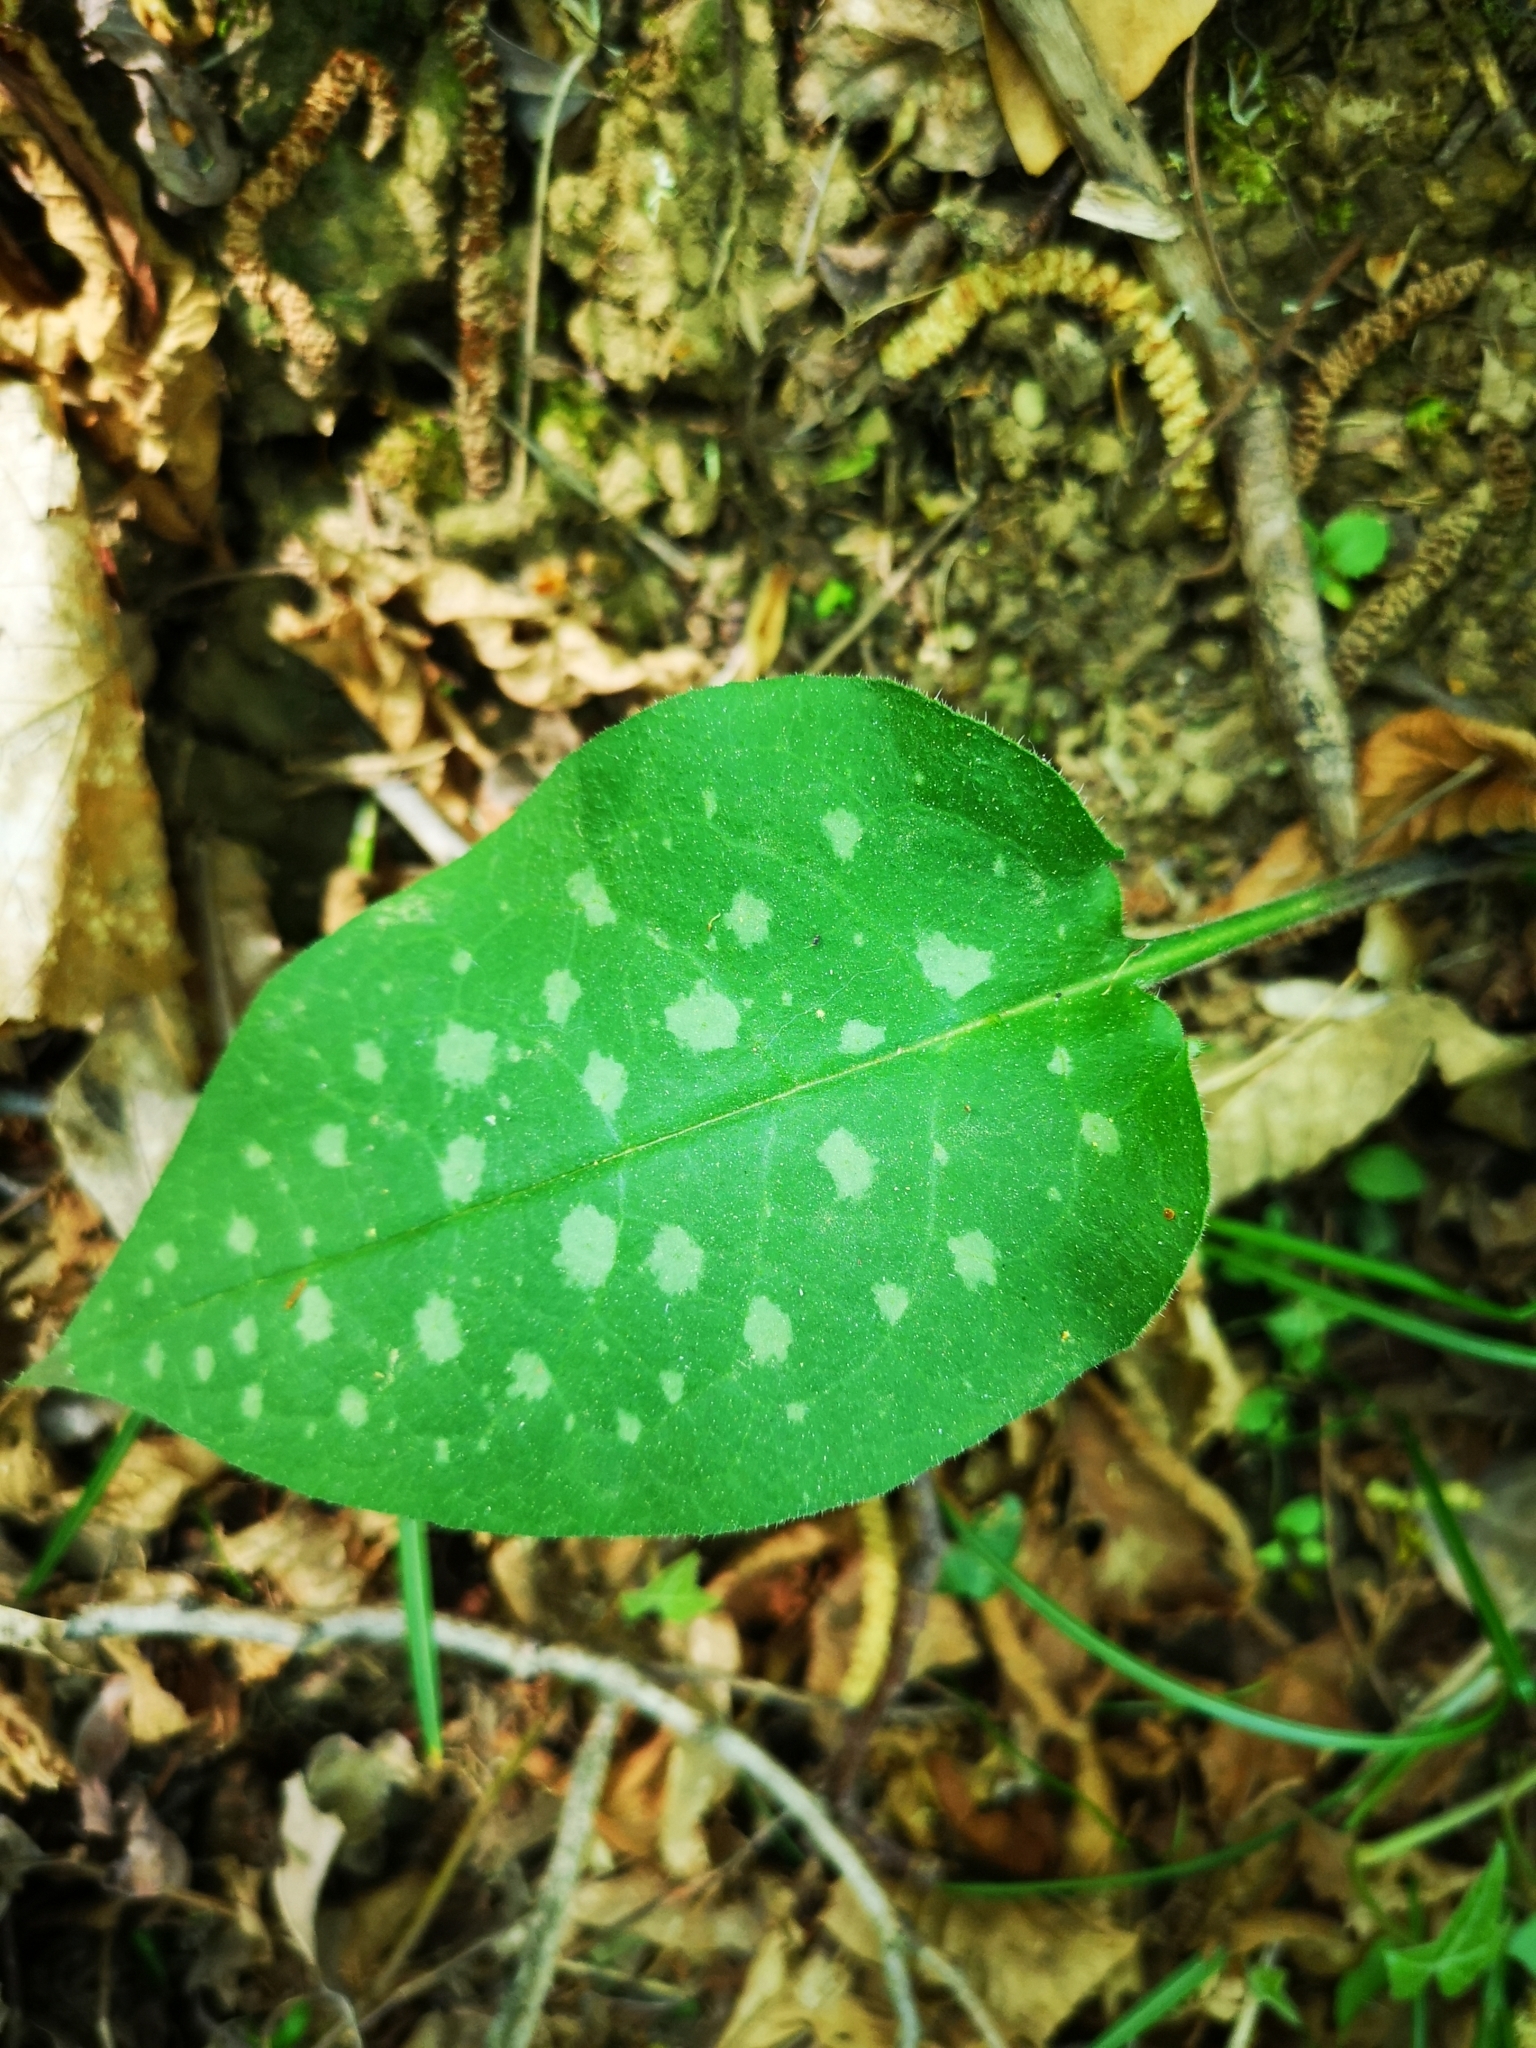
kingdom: Plantae
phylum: Tracheophyta
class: Magnoliopsida
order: Boraginales
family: Boraginaceae
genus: Pulmonaria
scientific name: Pulmonaria officinalis
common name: Lungwort
